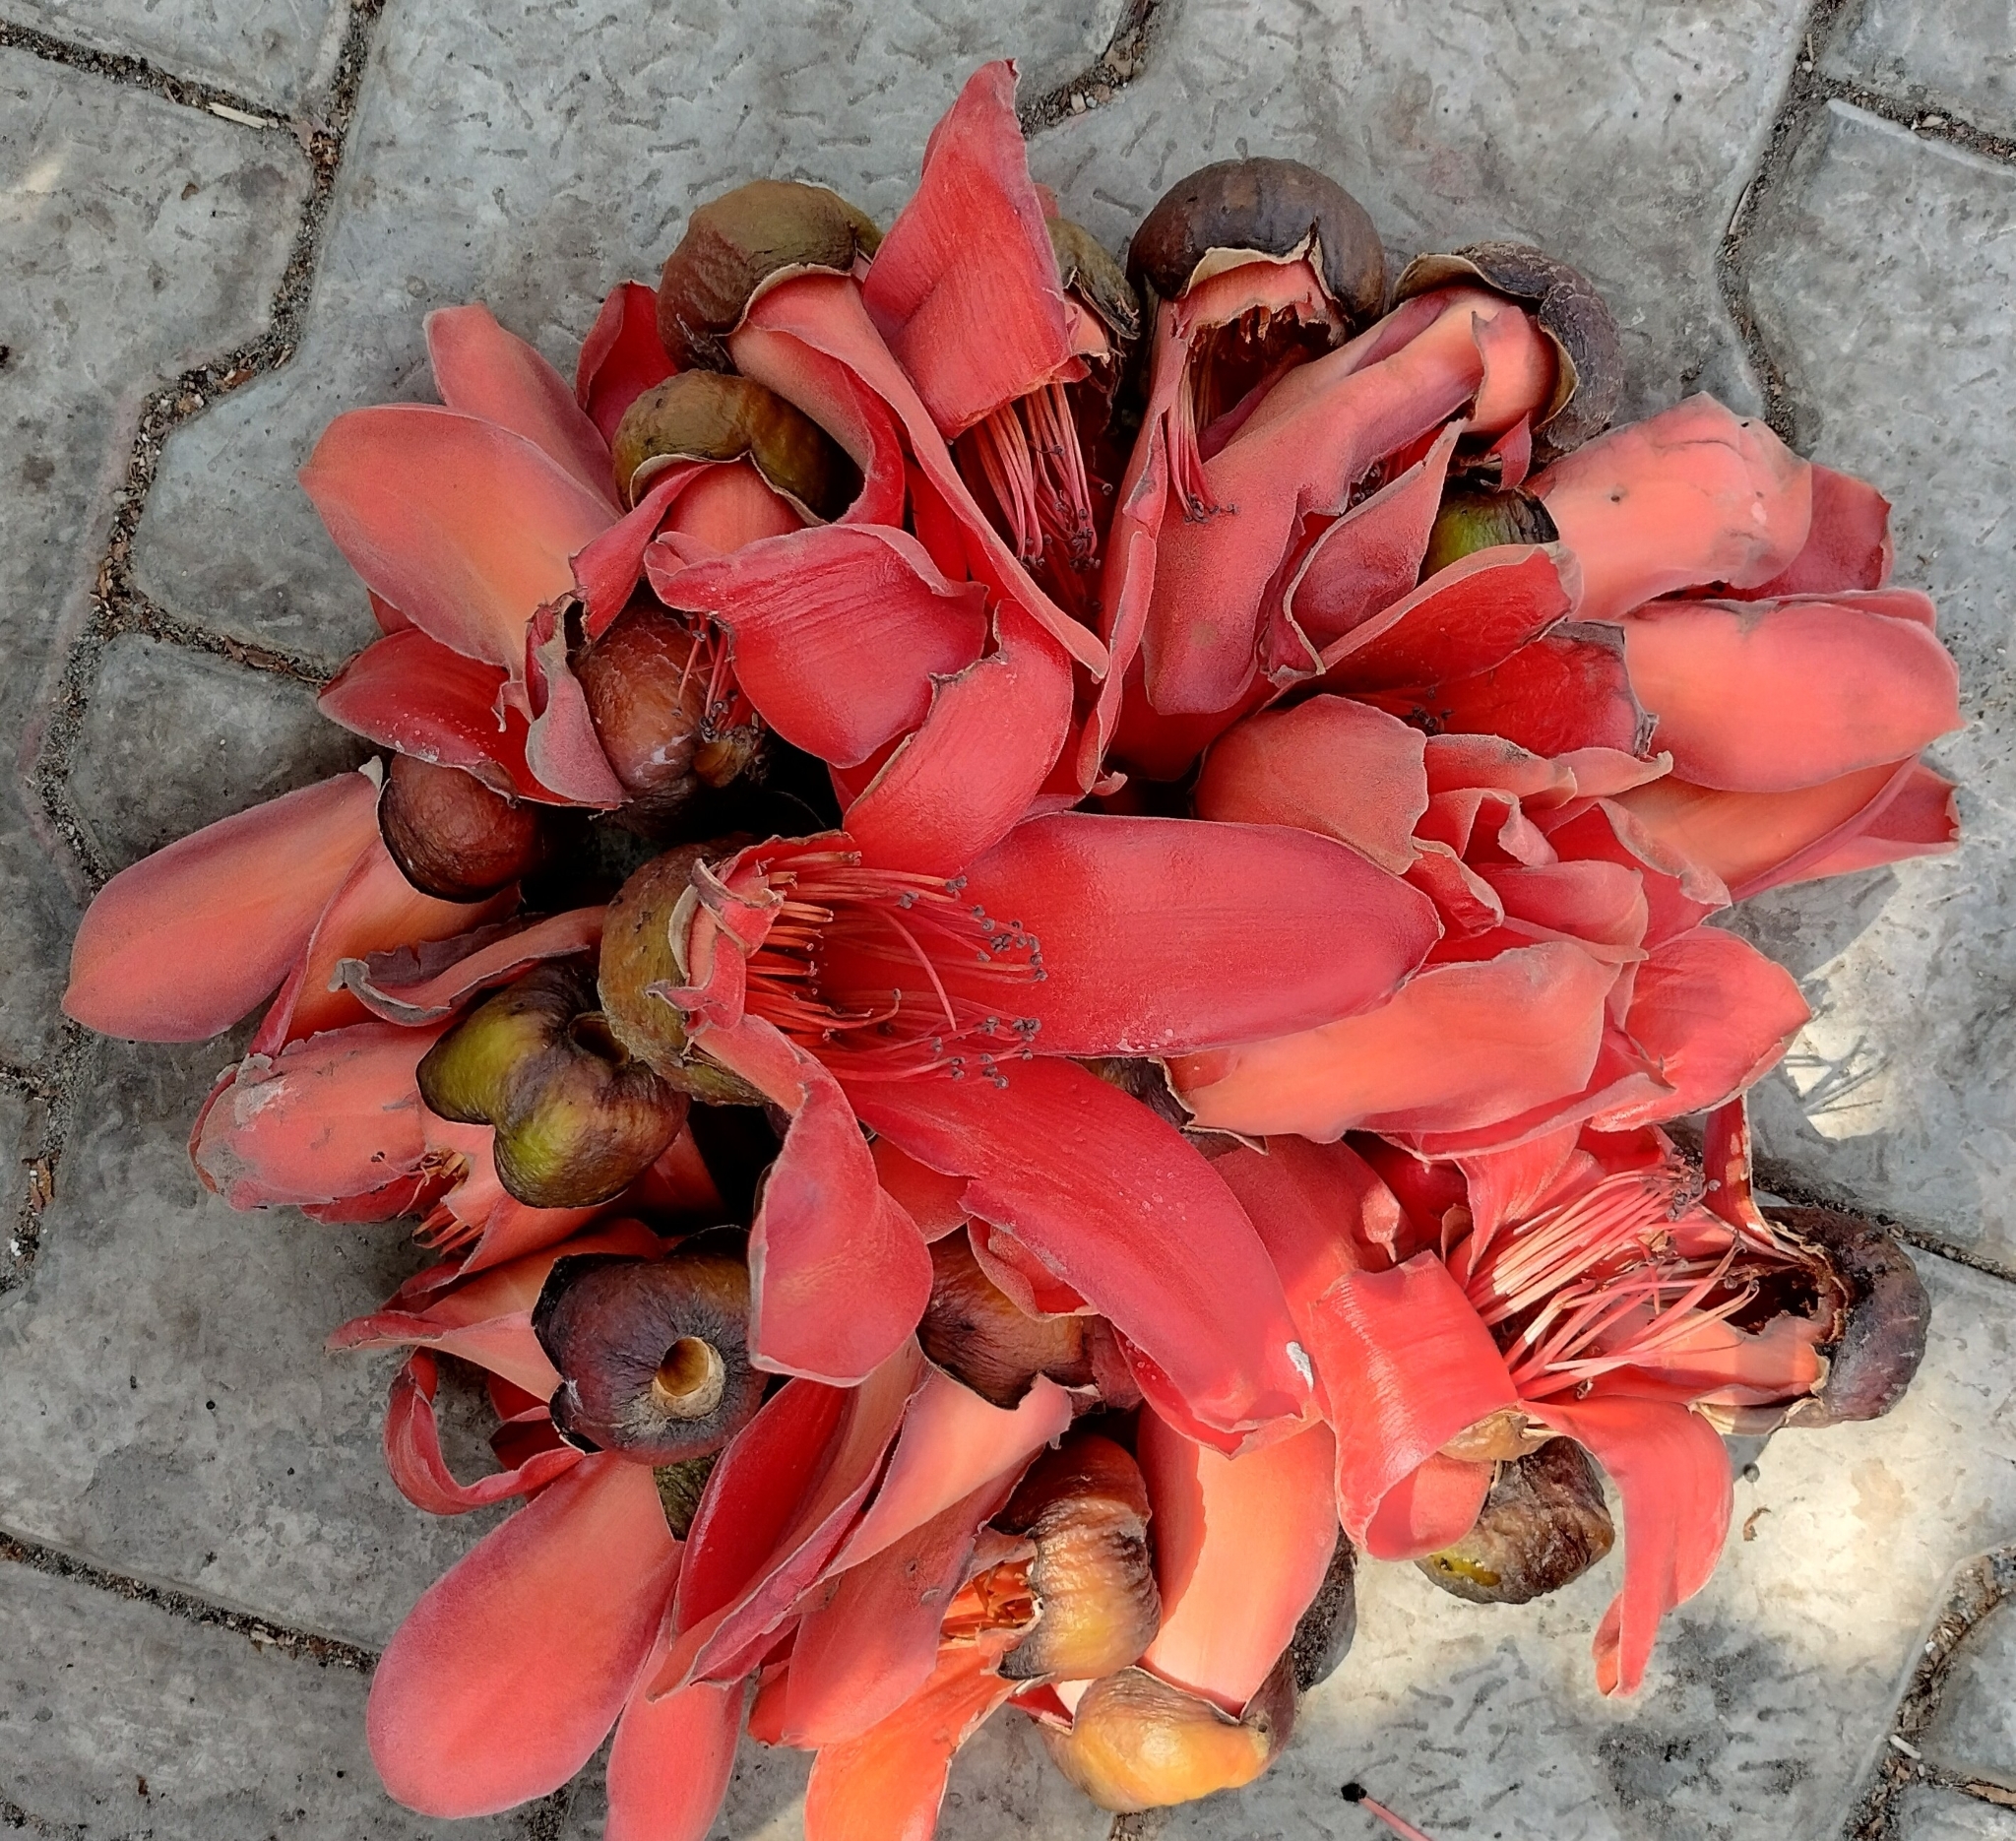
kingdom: Plantae
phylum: Tracheophyta
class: Magnoliopsida
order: Malvales
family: Malvaceae
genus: Bombax
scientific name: Bombax ceiba
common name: Northern-cottonwood
